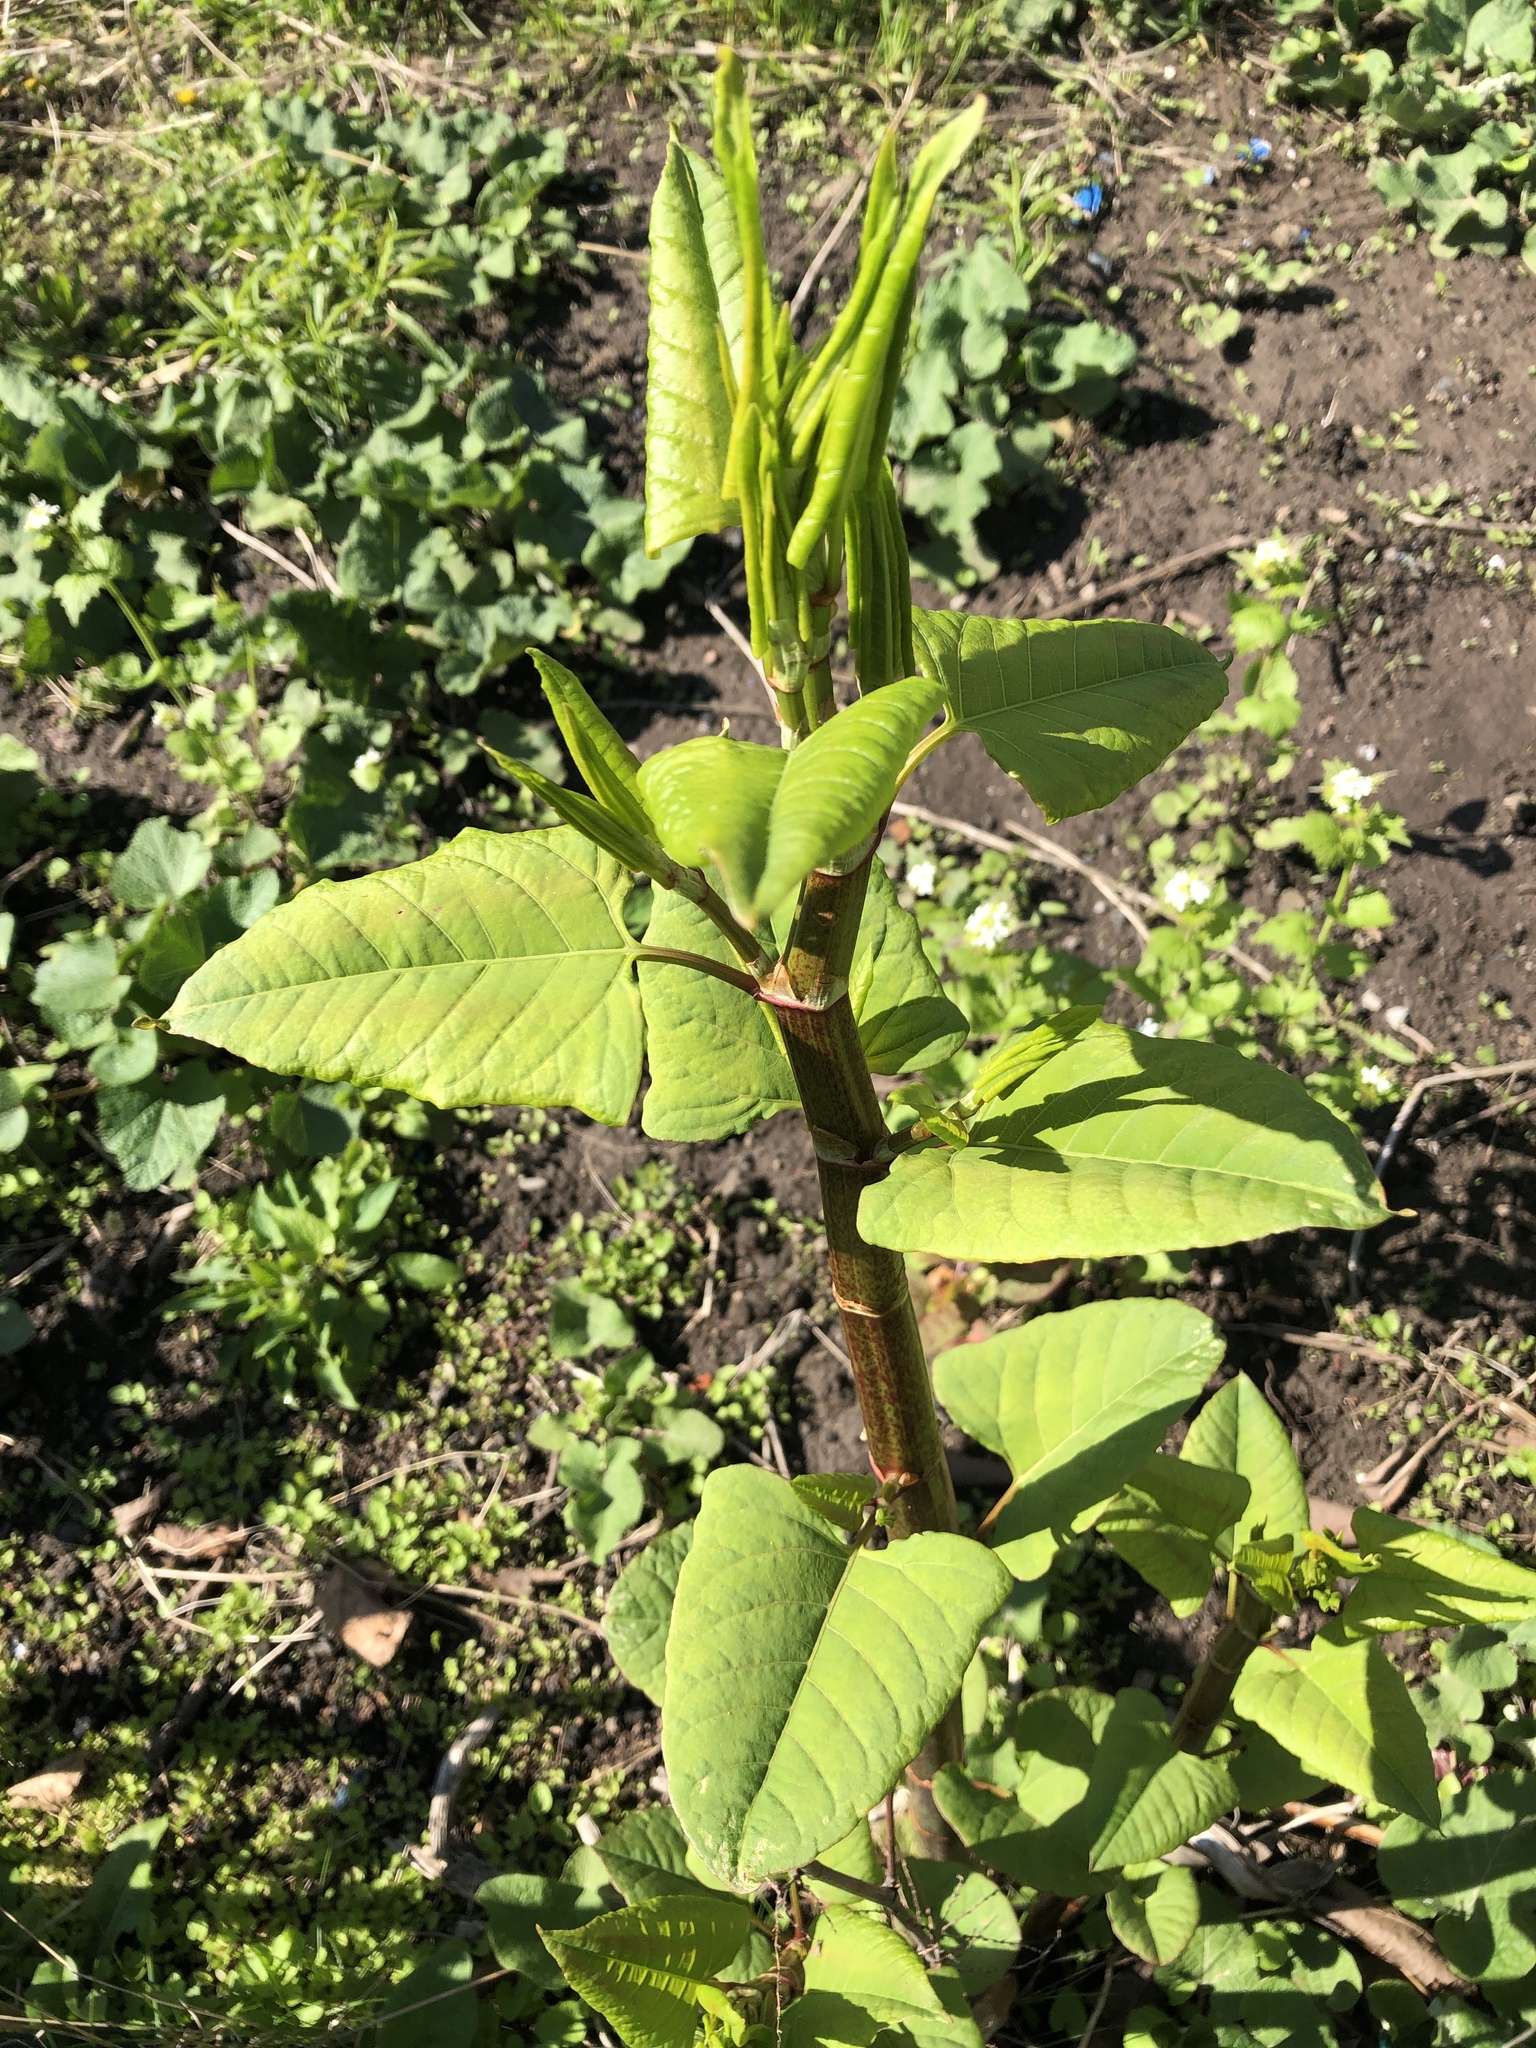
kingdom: Plantae
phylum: Tracheophyta
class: Magnoliopsida
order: Caryophyllales
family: Polygonaceae
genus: Reynoutria
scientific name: Reynoutria japonica
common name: Japanese knotweed
